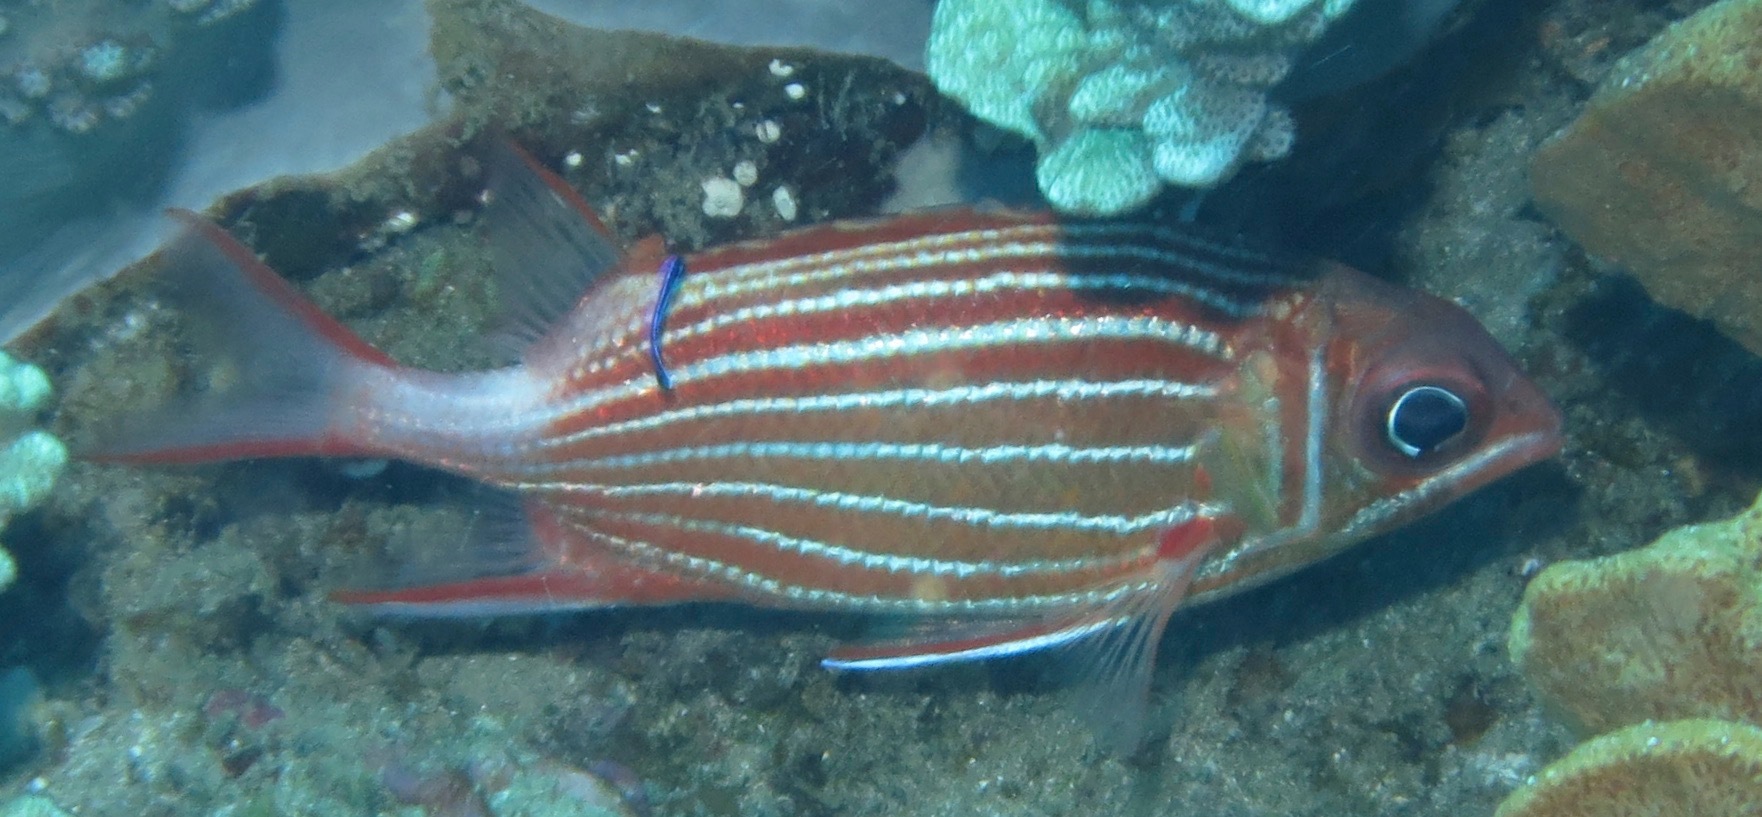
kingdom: Animalia
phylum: Chordata
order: Beryciformes
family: Holocentridae
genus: Sargocentron
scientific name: Sargocentron diadema
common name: Crown squirrelfish
